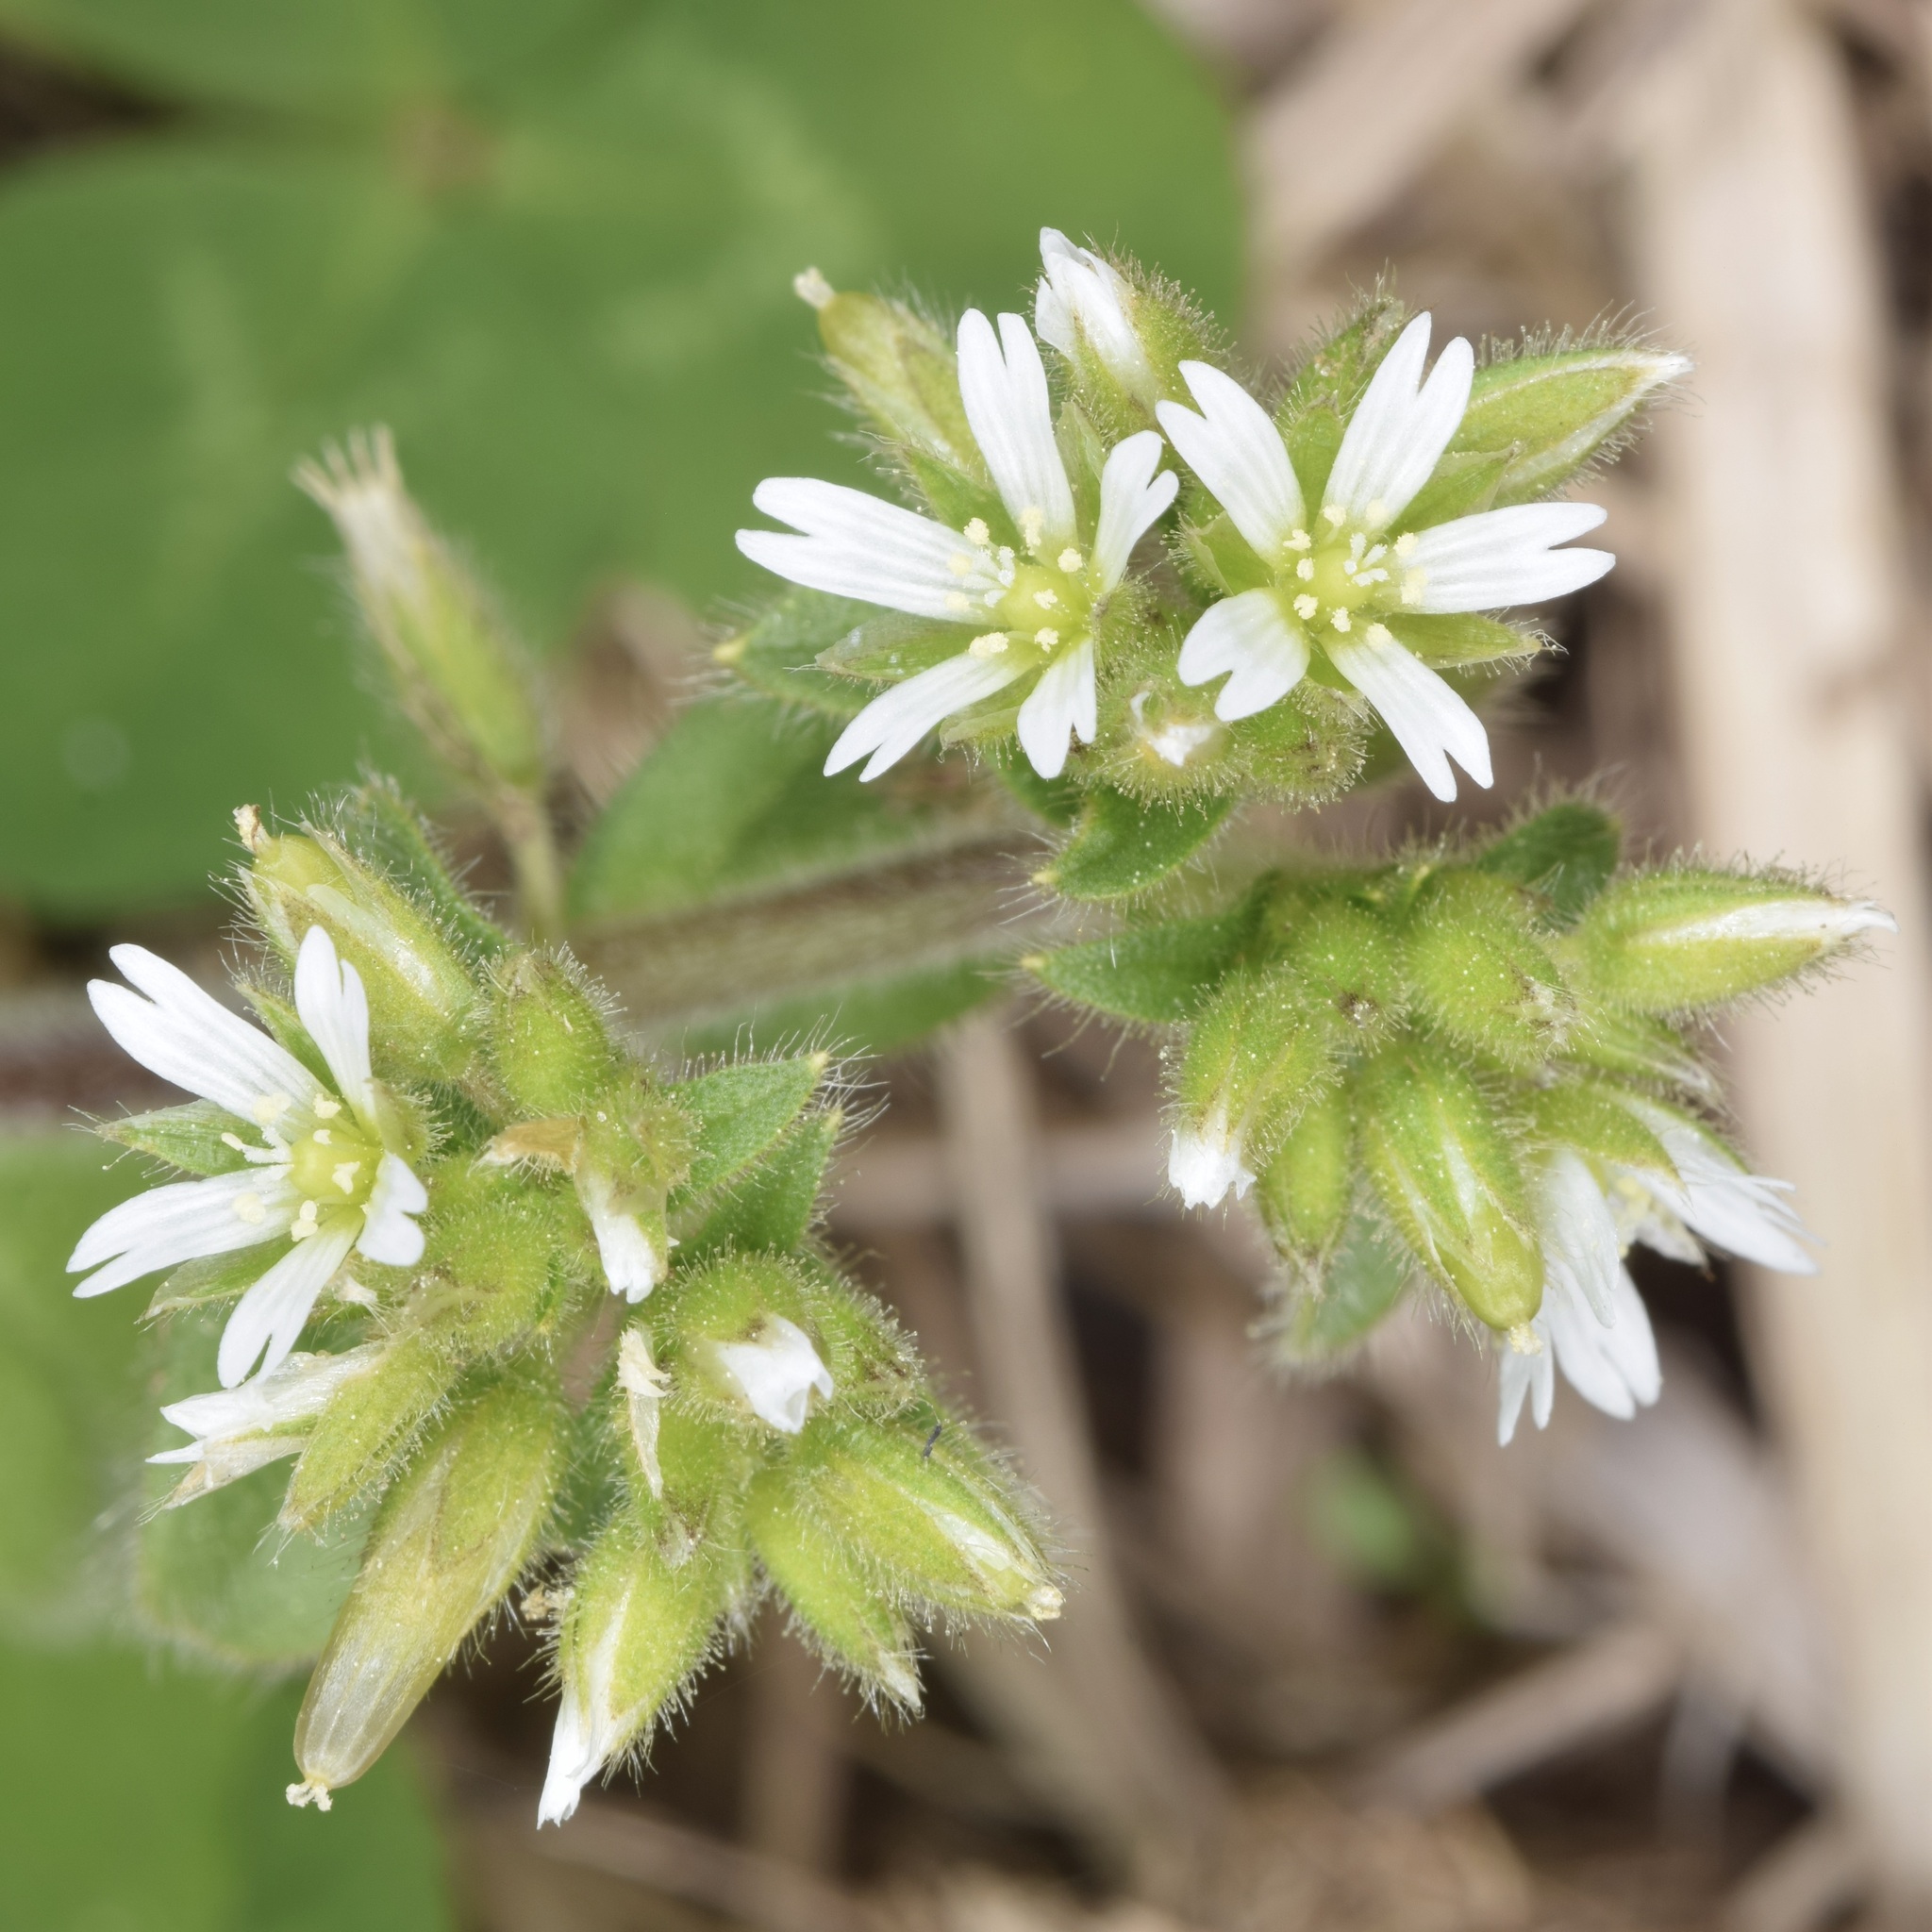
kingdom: Plantae
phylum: Tracheophyta
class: Magnoliopsida
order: Caryophyllales
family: Caryophyllaceae
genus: Cerastium
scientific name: Cerastium glomeratum
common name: Sticky chickweed
